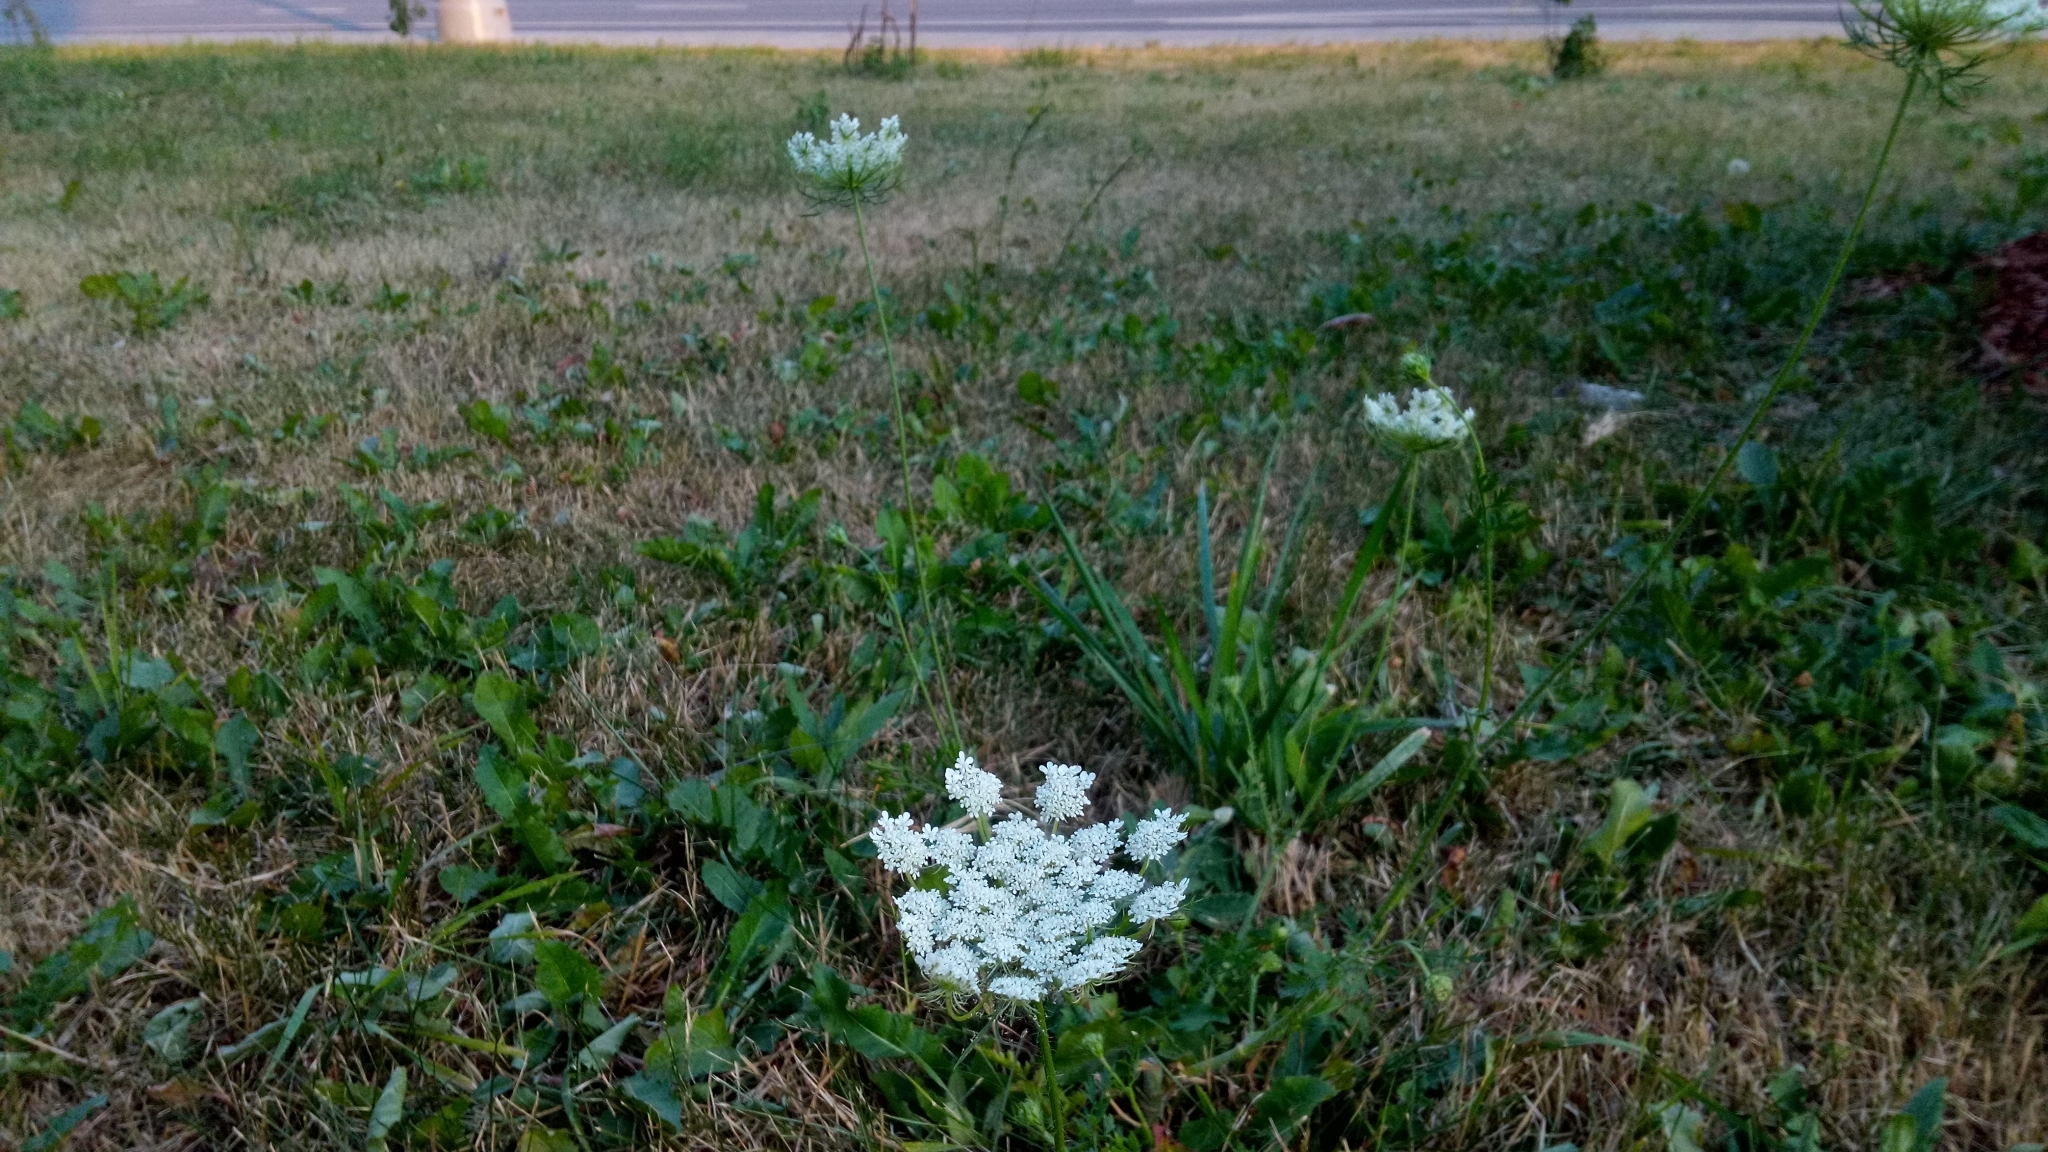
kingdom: Plantae
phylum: Tracheophyta
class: Magnoliopsida
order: Apiales
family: Apiaceae
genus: Daucus
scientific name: Daucus carota
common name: Wild carrot
